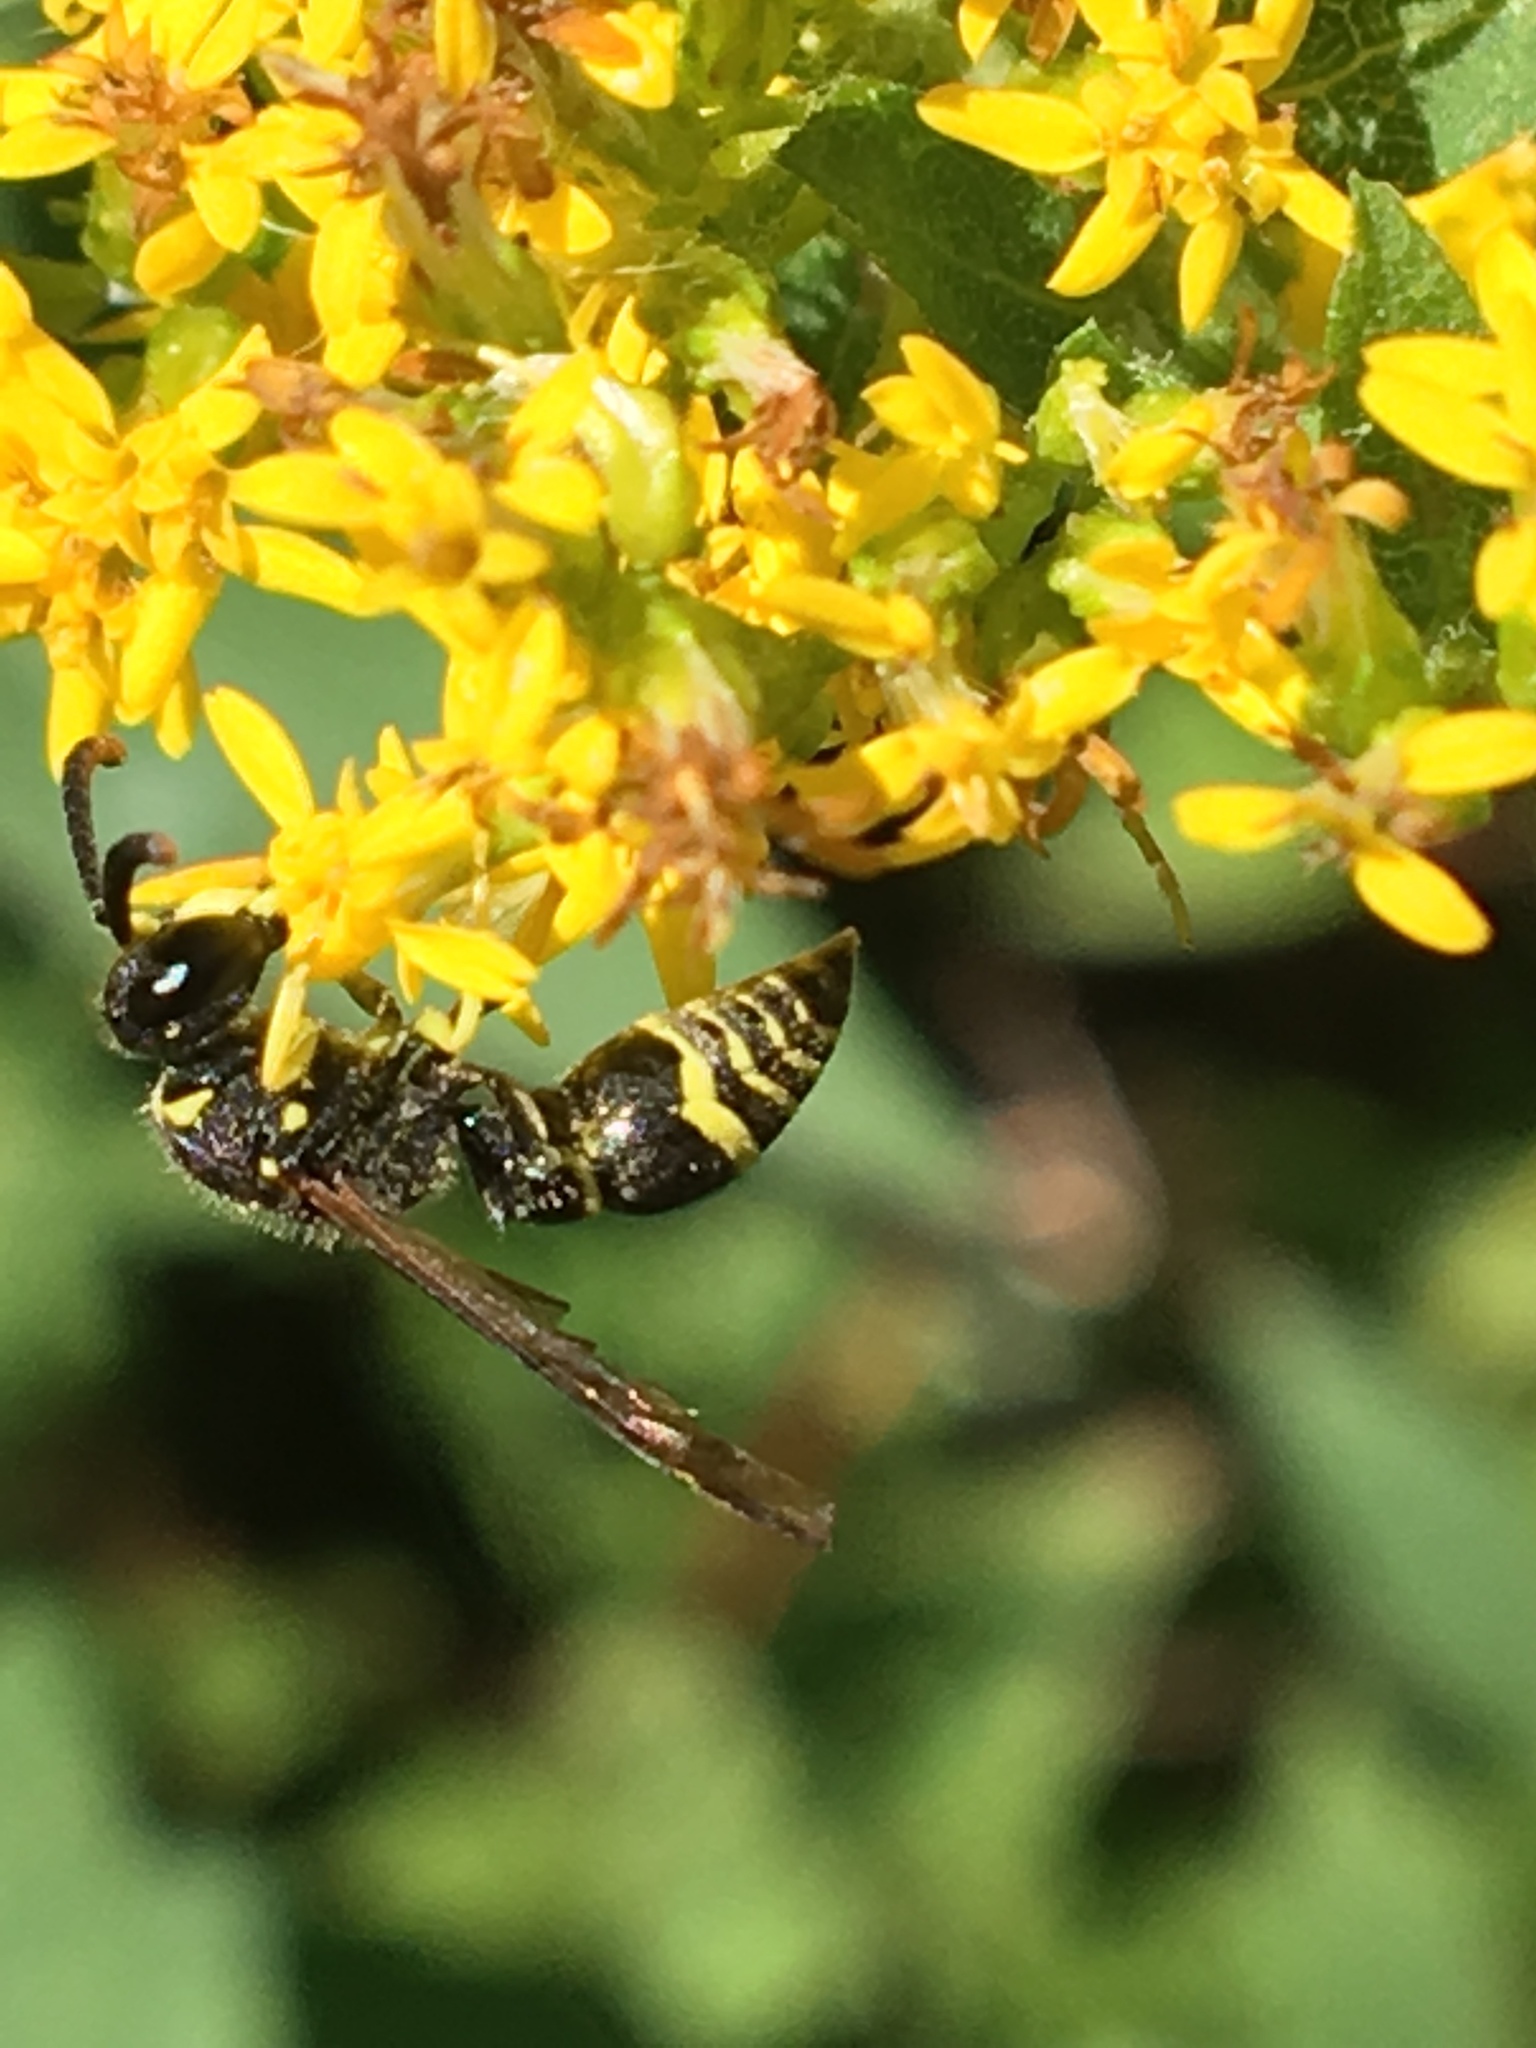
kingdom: Animalia
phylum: Arthropoda
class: Insecta
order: Hymenoptera
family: Vespidae
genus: Ancistrocerus
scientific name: Ancistrocerus adiabatus
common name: Bramble mason wasp
